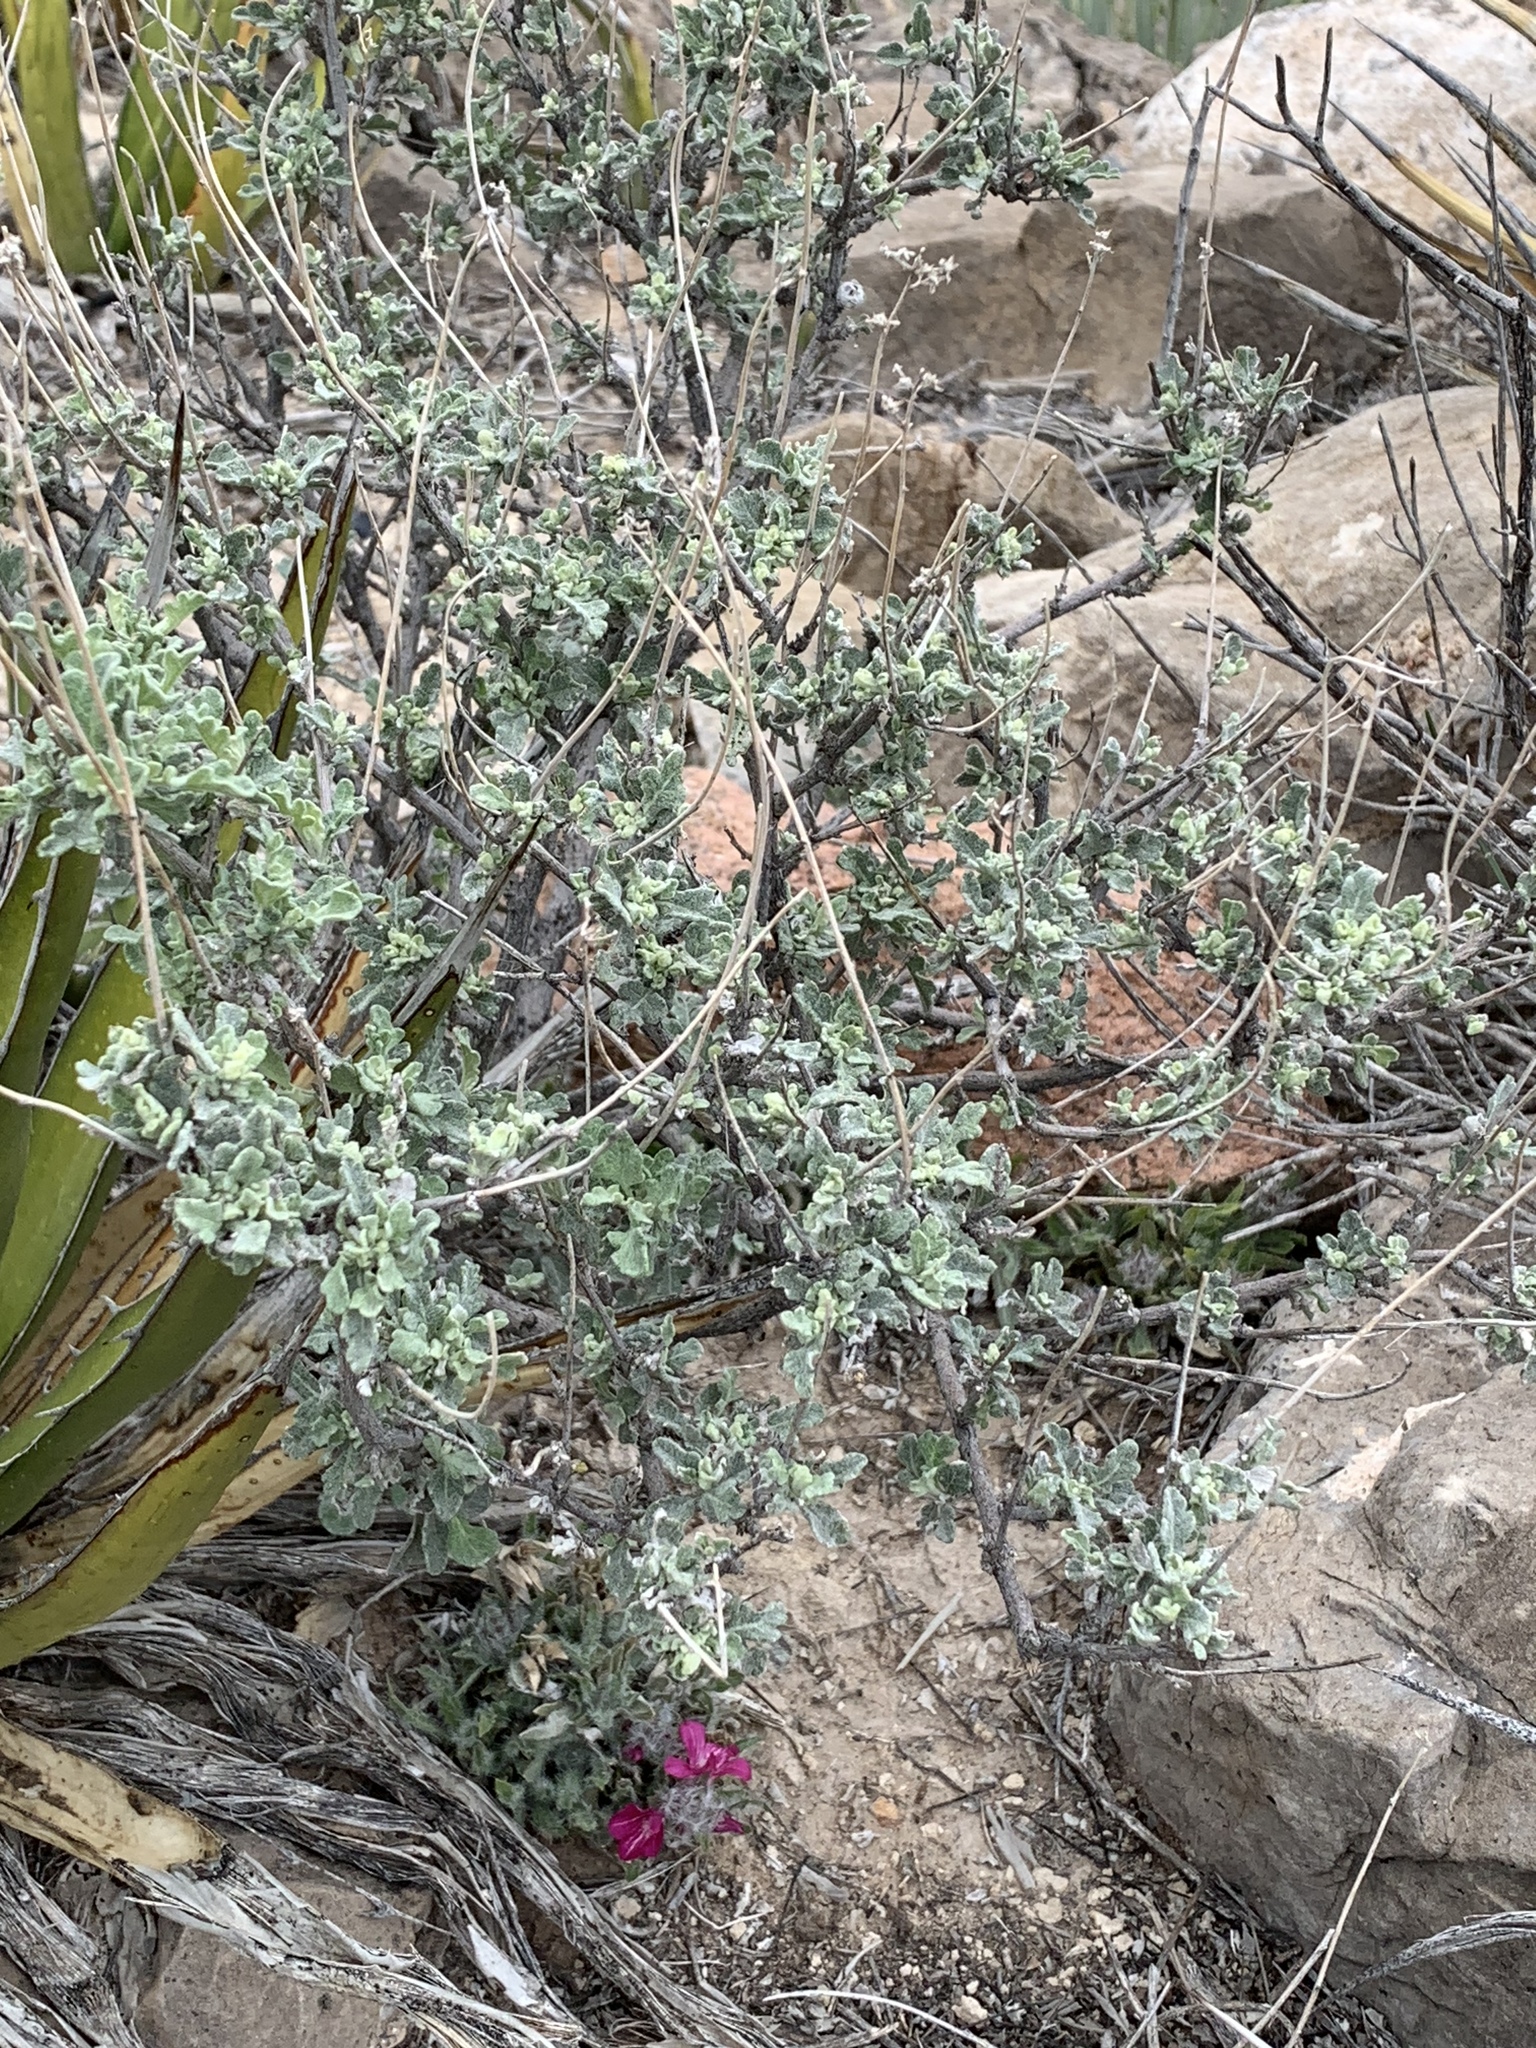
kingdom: Plantae
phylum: Tracheophyta
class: Magnoliopsida
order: Asterales
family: Asteraceae
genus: Parthenium
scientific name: Parthenium incanum
